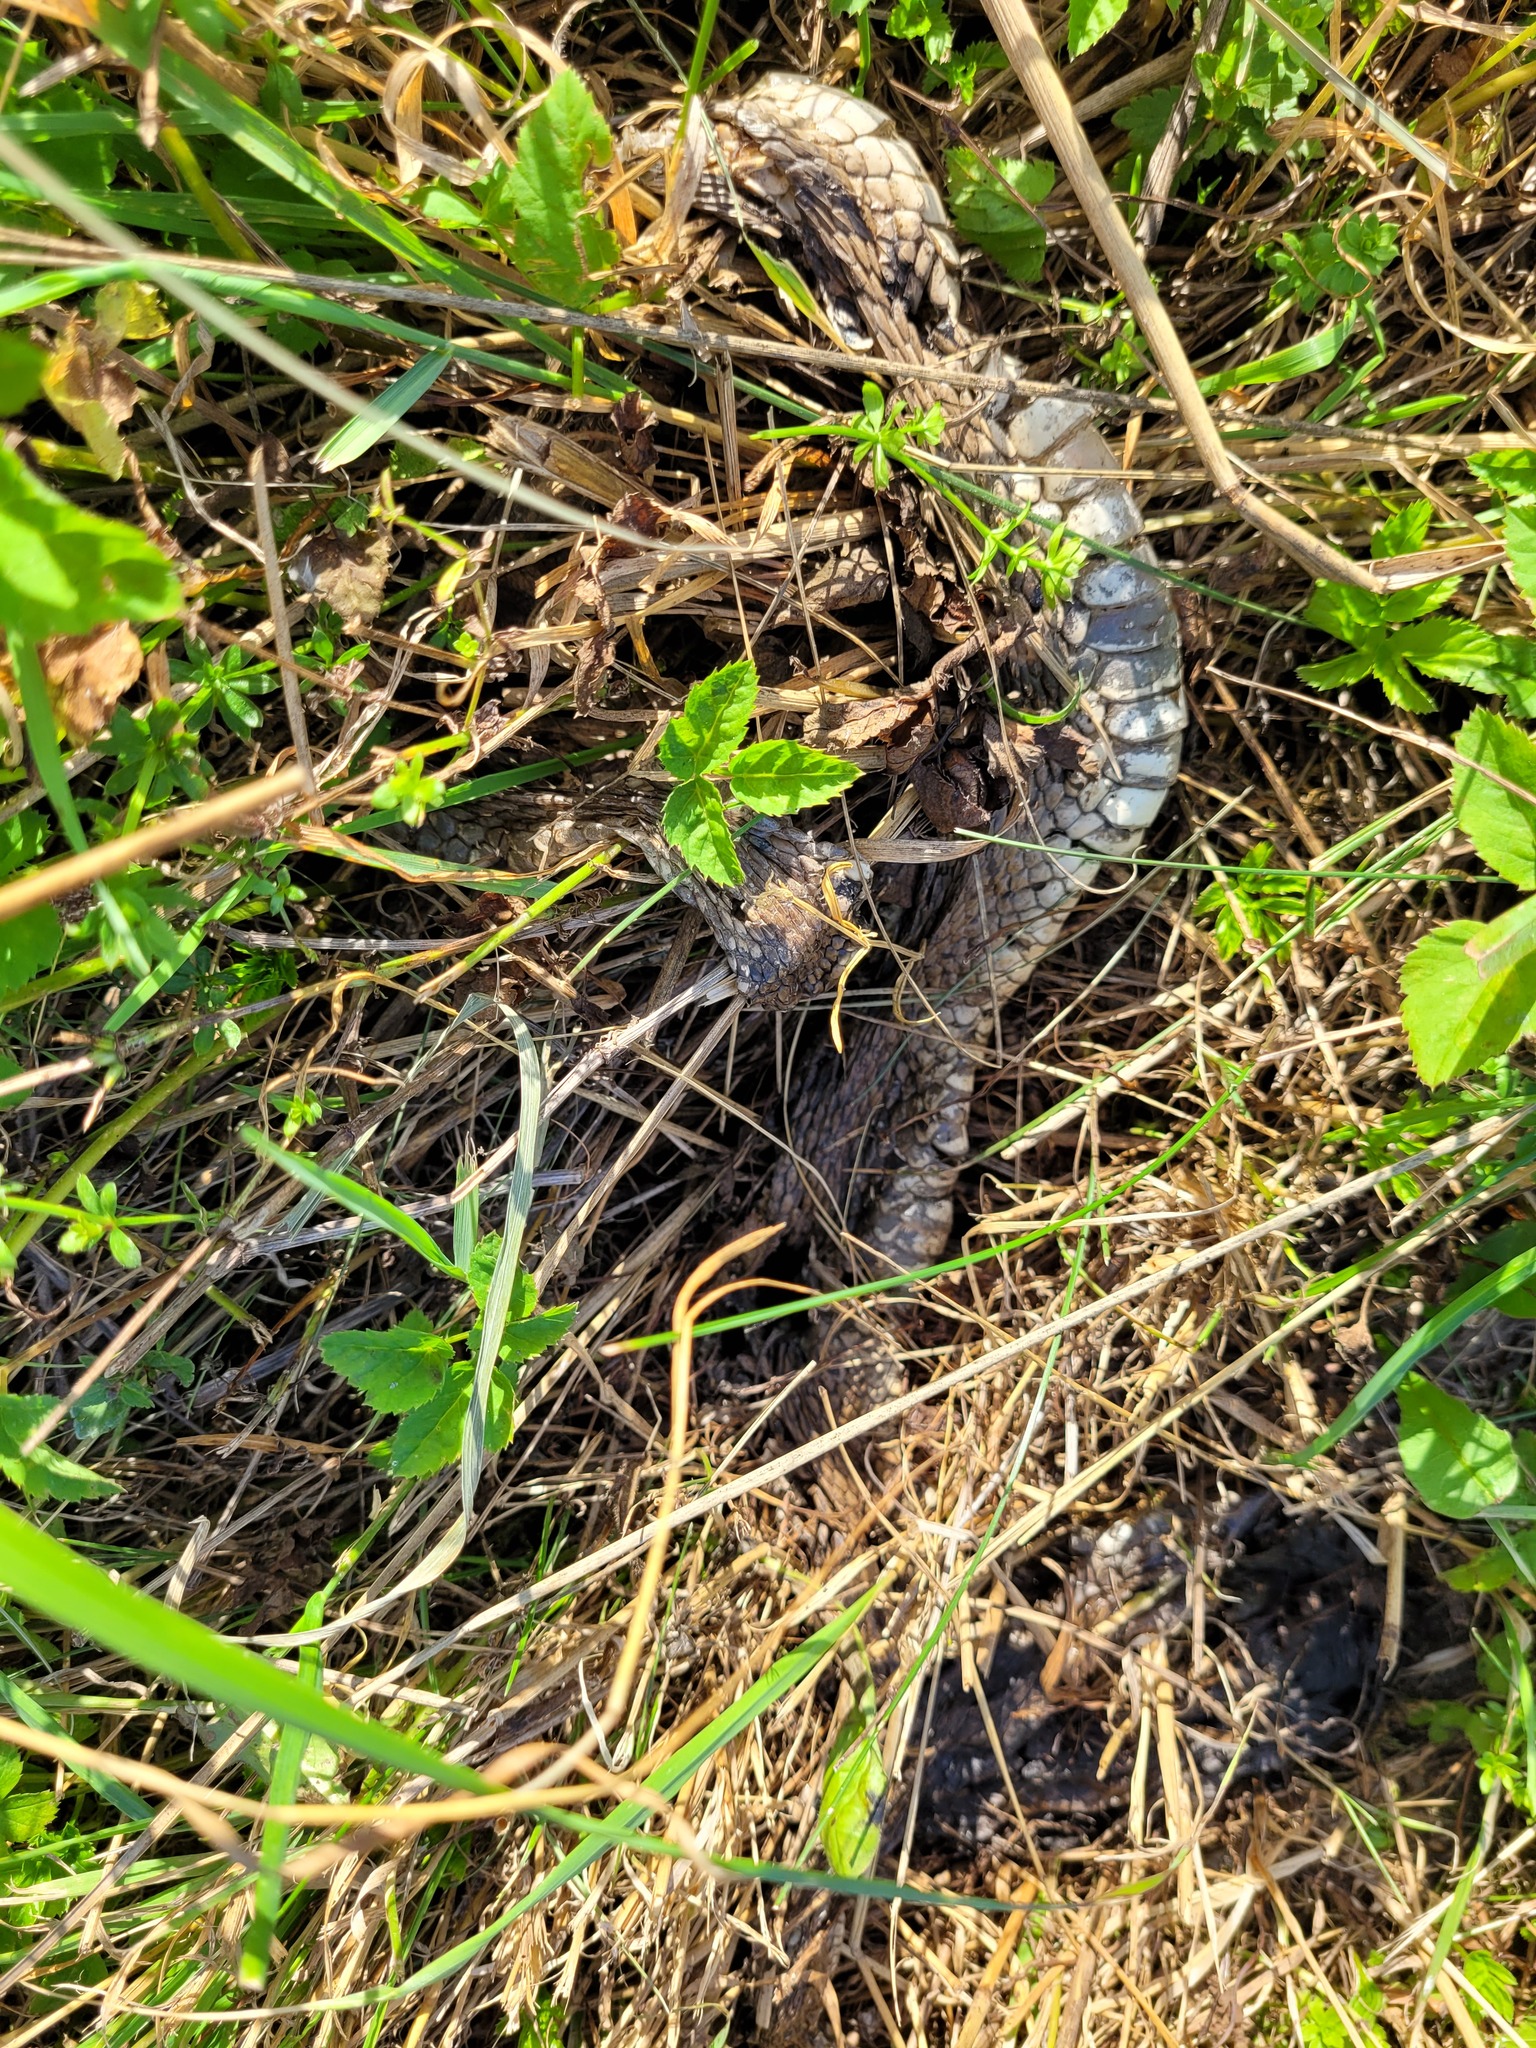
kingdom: Animalia
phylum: Chordata
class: Squamata
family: Colubridae
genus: Natrix
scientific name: Natrix natrix
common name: Grass snake
